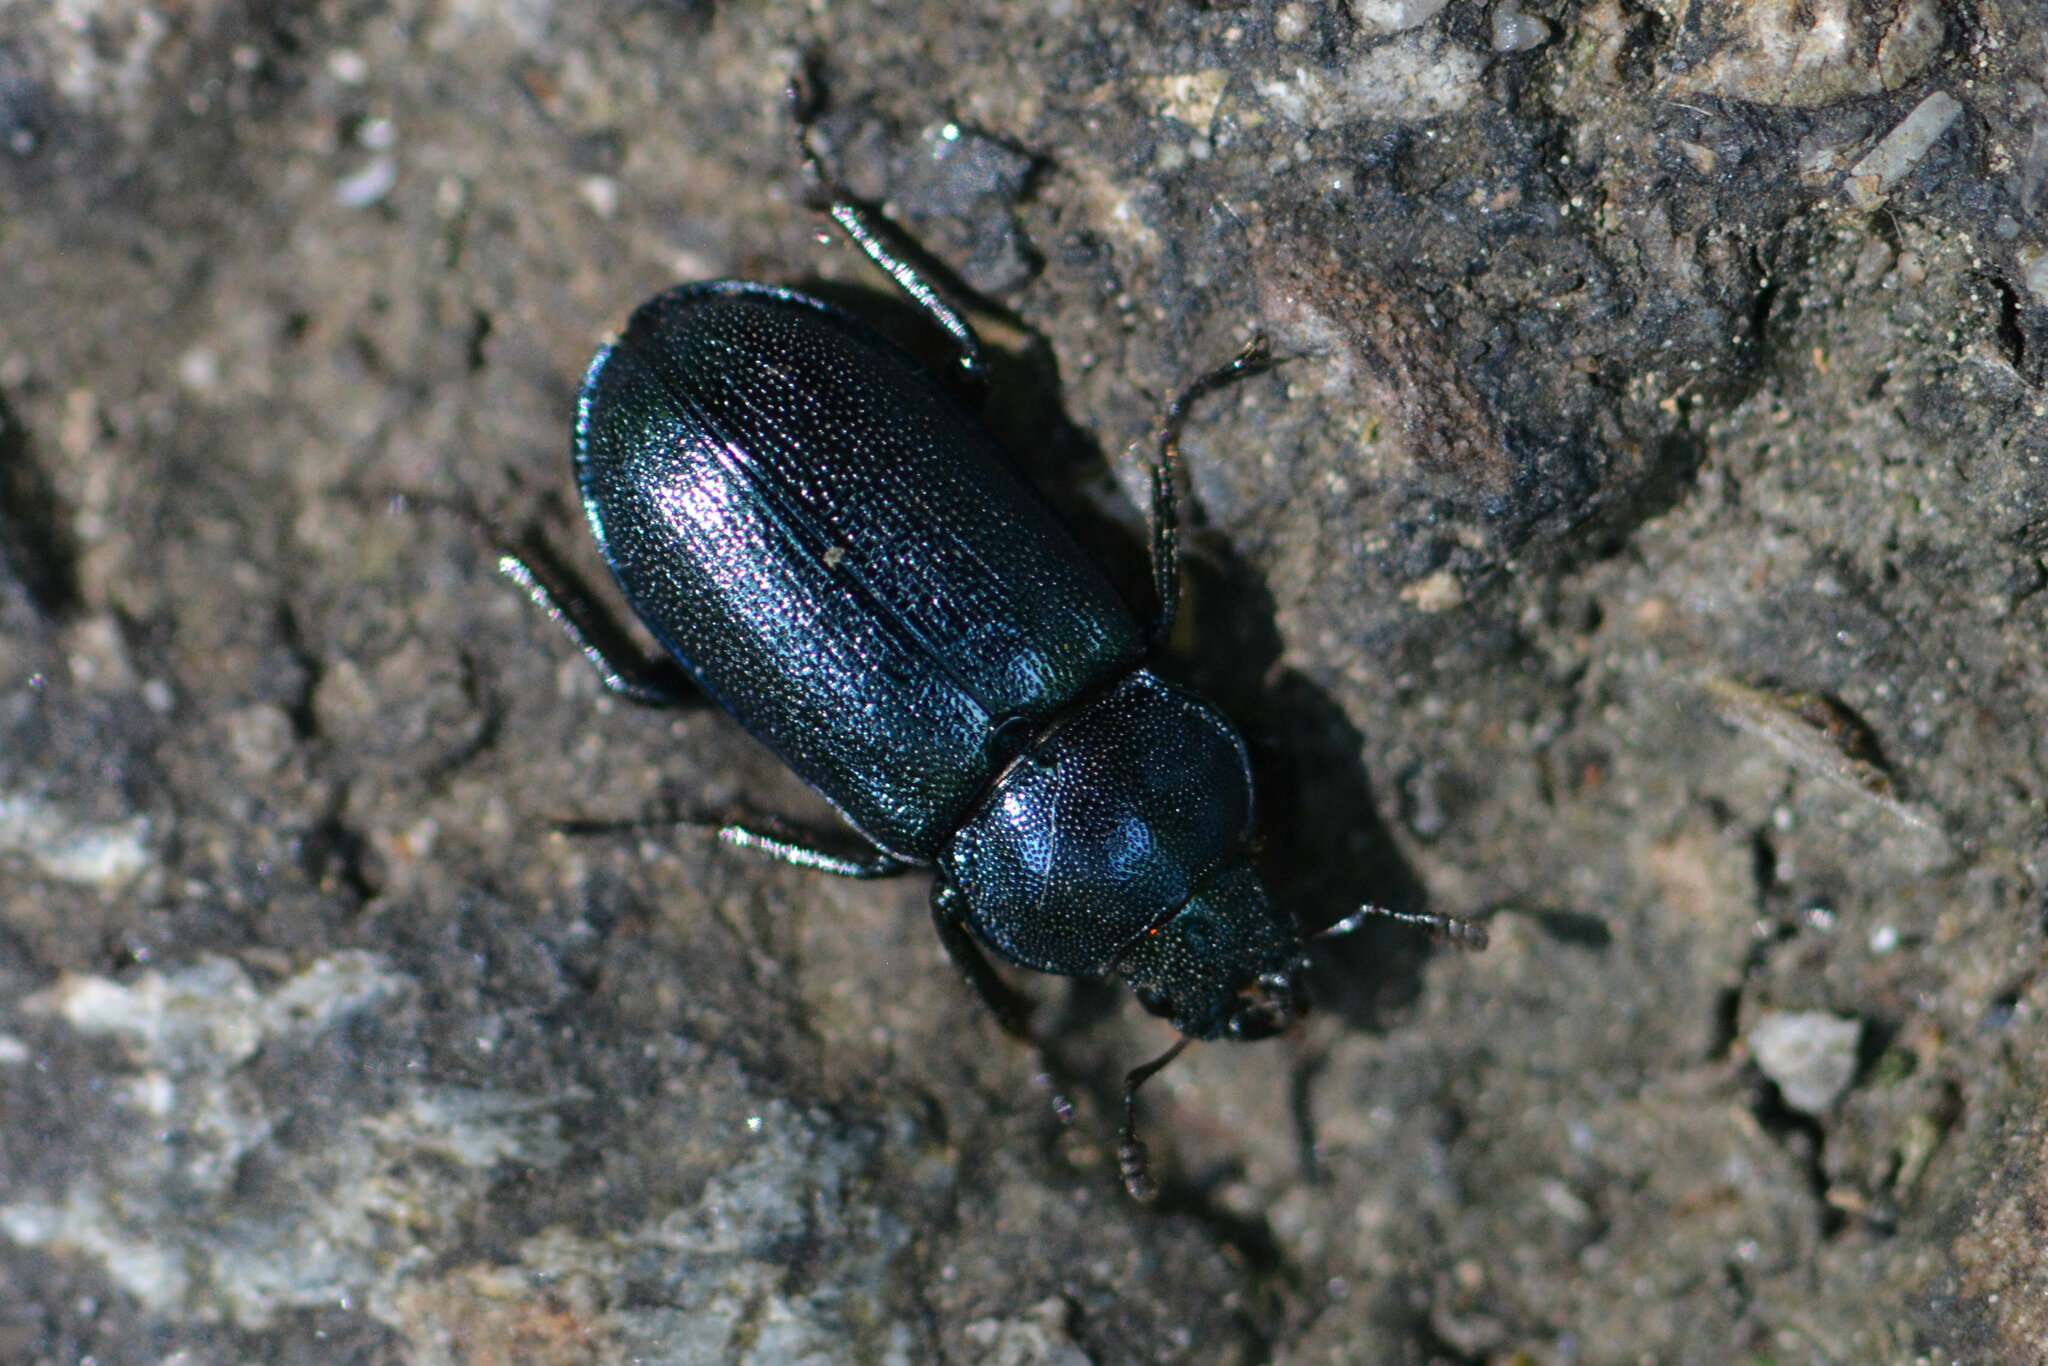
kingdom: Animalia
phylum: Arthropoda
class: Insecta
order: Coleoptera
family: Lucanidae
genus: Platycerus
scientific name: Platycerus caraboides
